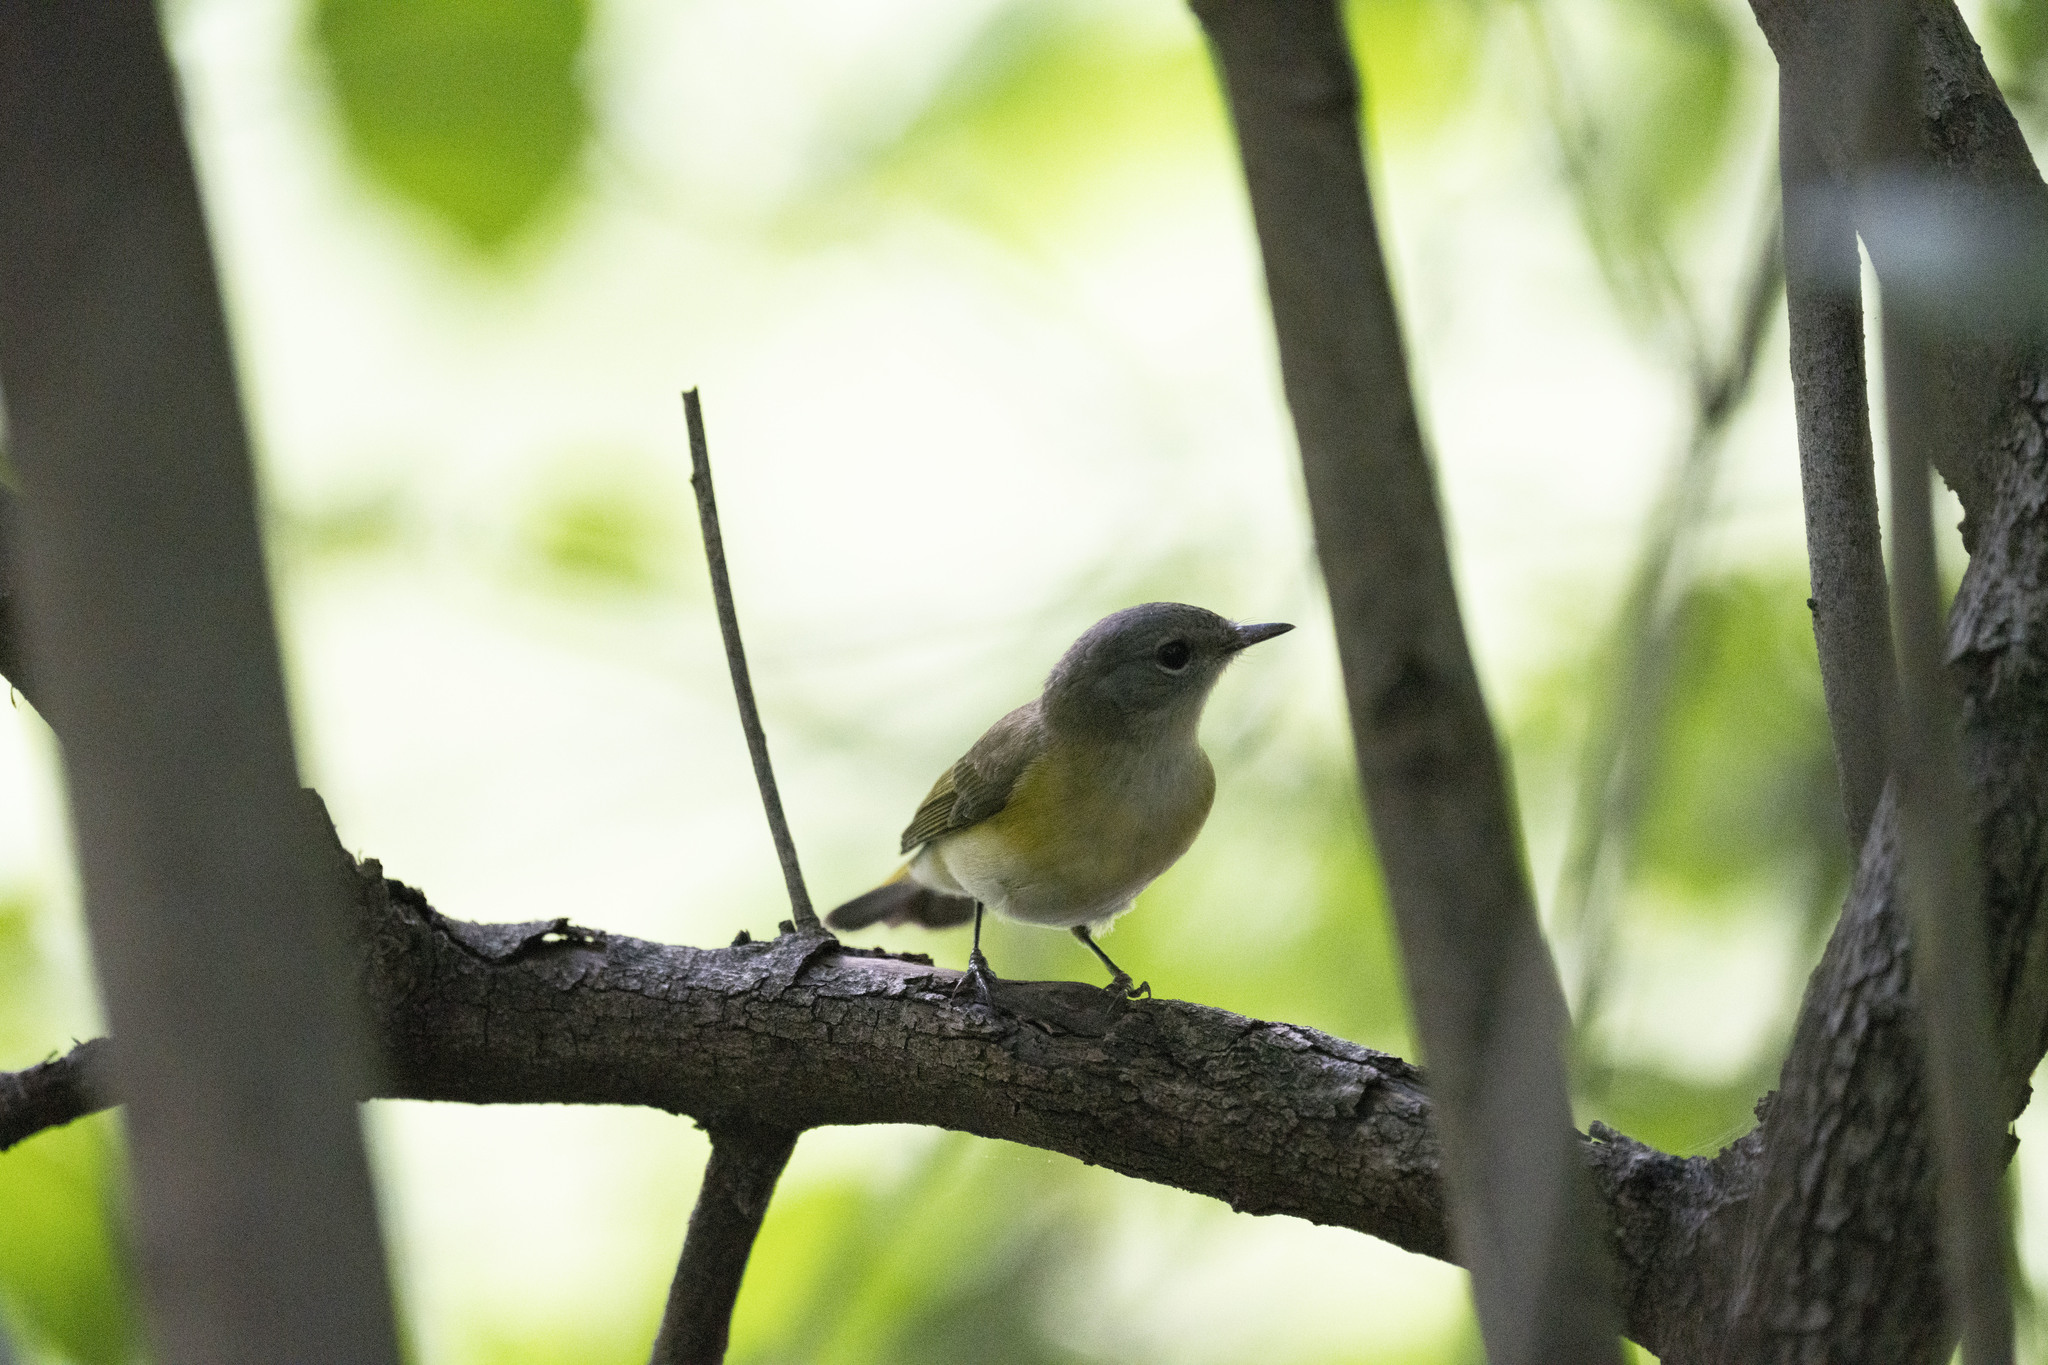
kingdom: Animalia
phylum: Chordata
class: Aves
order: Passeriformes
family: Parulidae
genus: Setophaga
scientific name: Setophaga ruticilla
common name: American redstart
